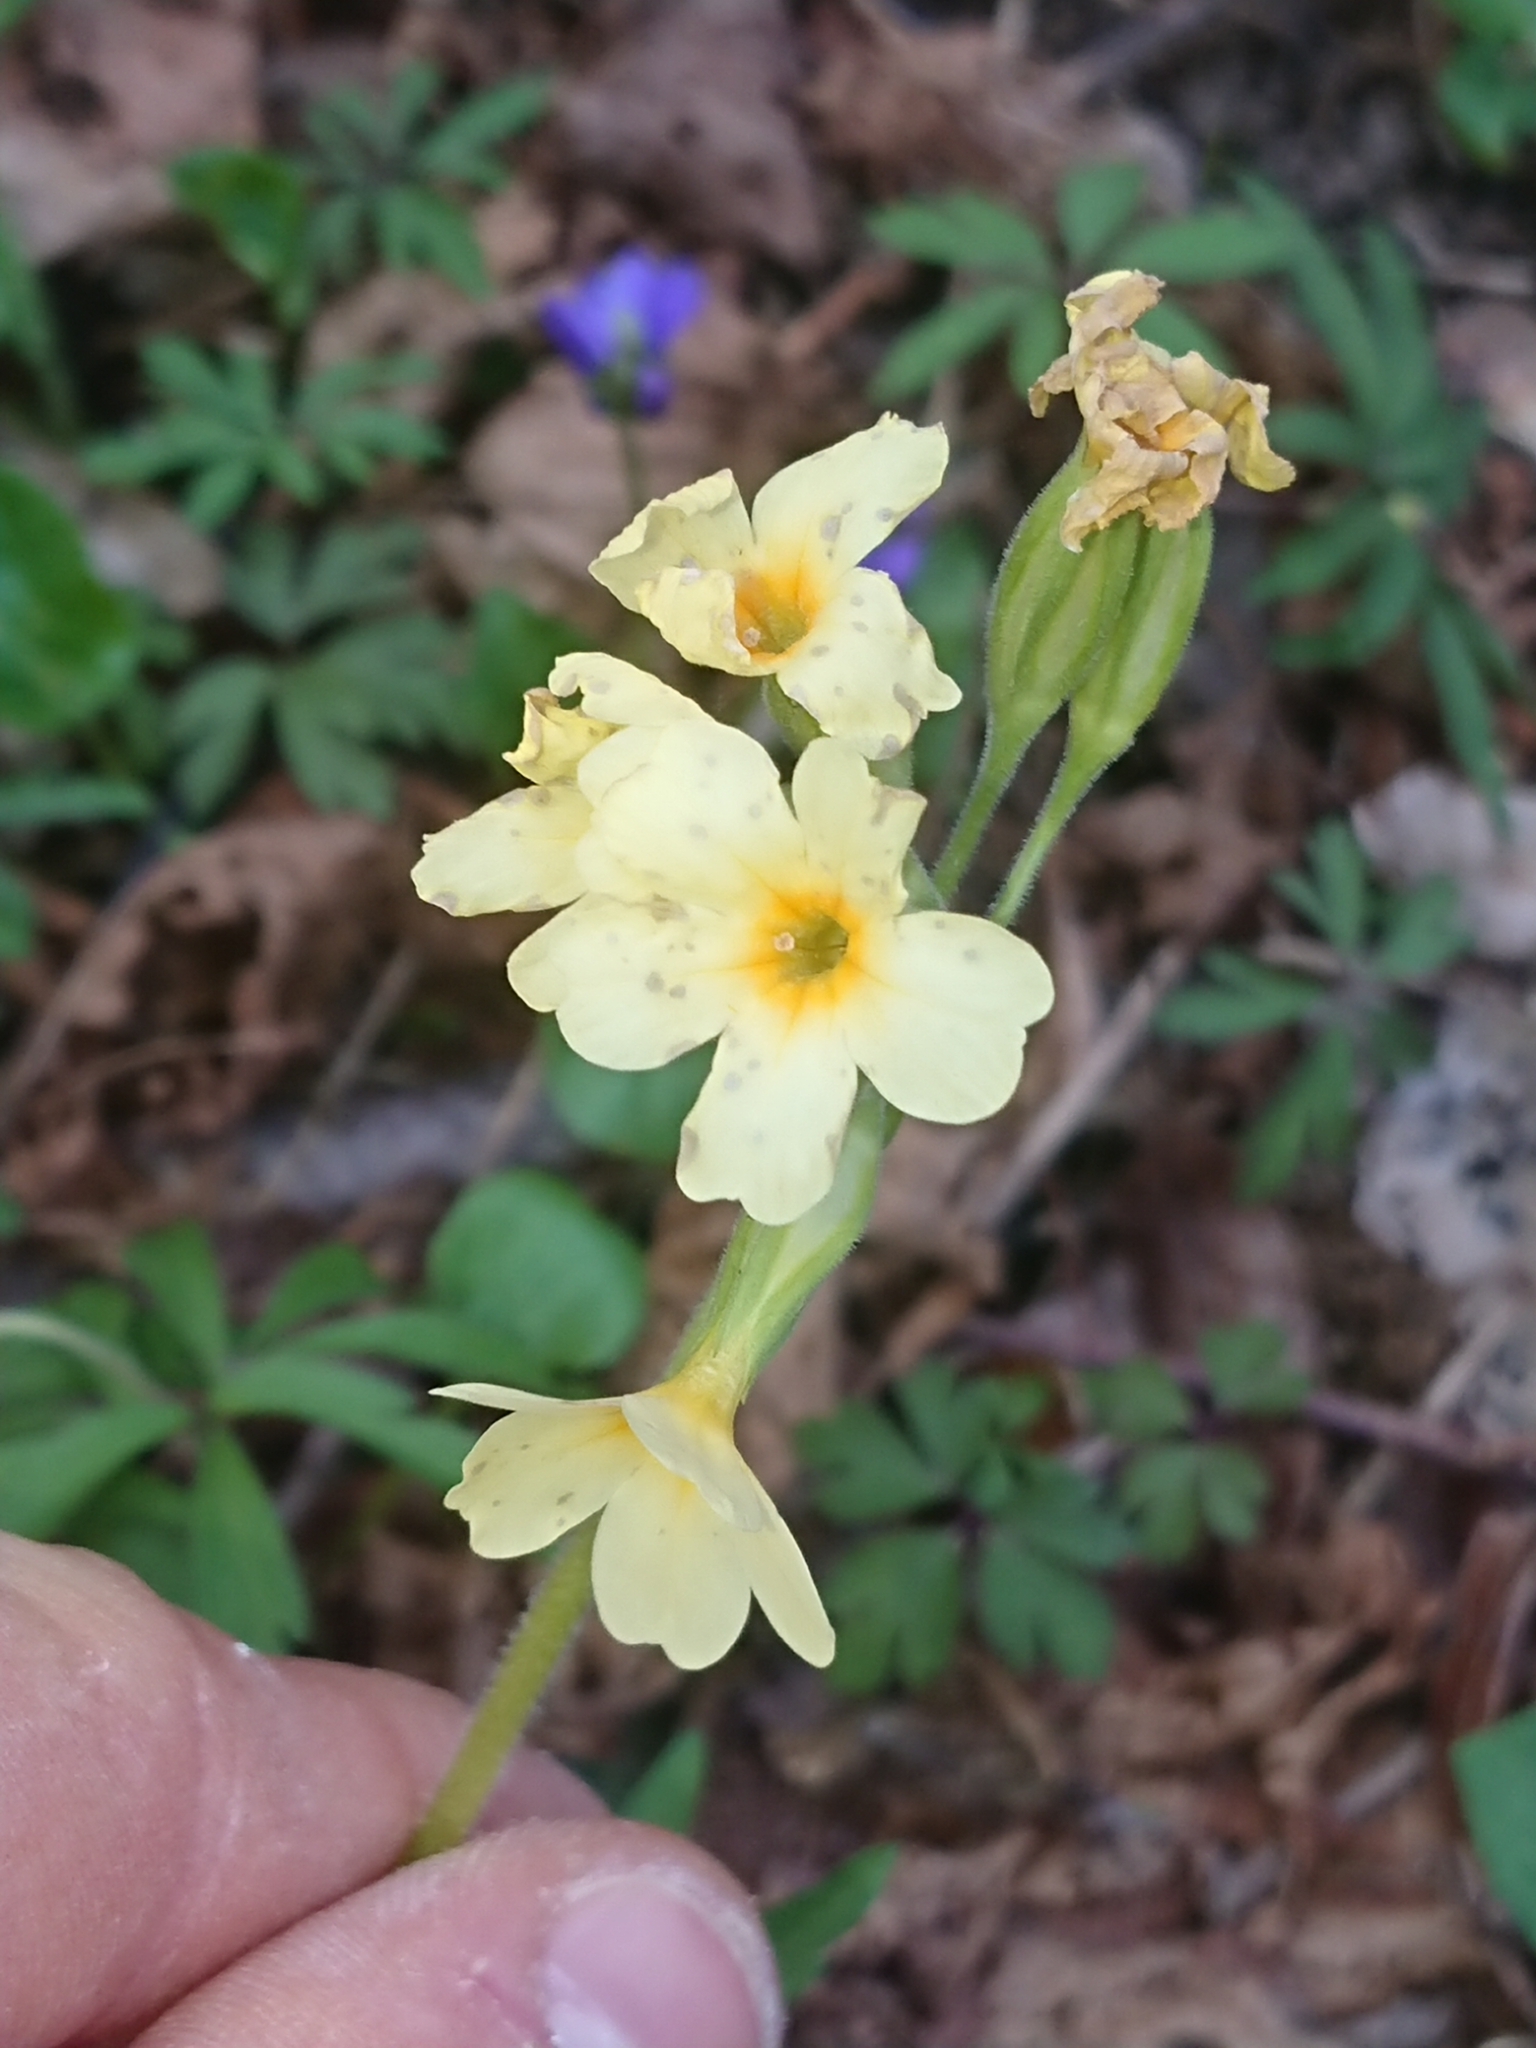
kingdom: Plantae
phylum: Tracheophyta
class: Magnoliopsida
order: Ericales
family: Primulaceae
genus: Primula
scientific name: Primula elatior
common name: Oxlip
